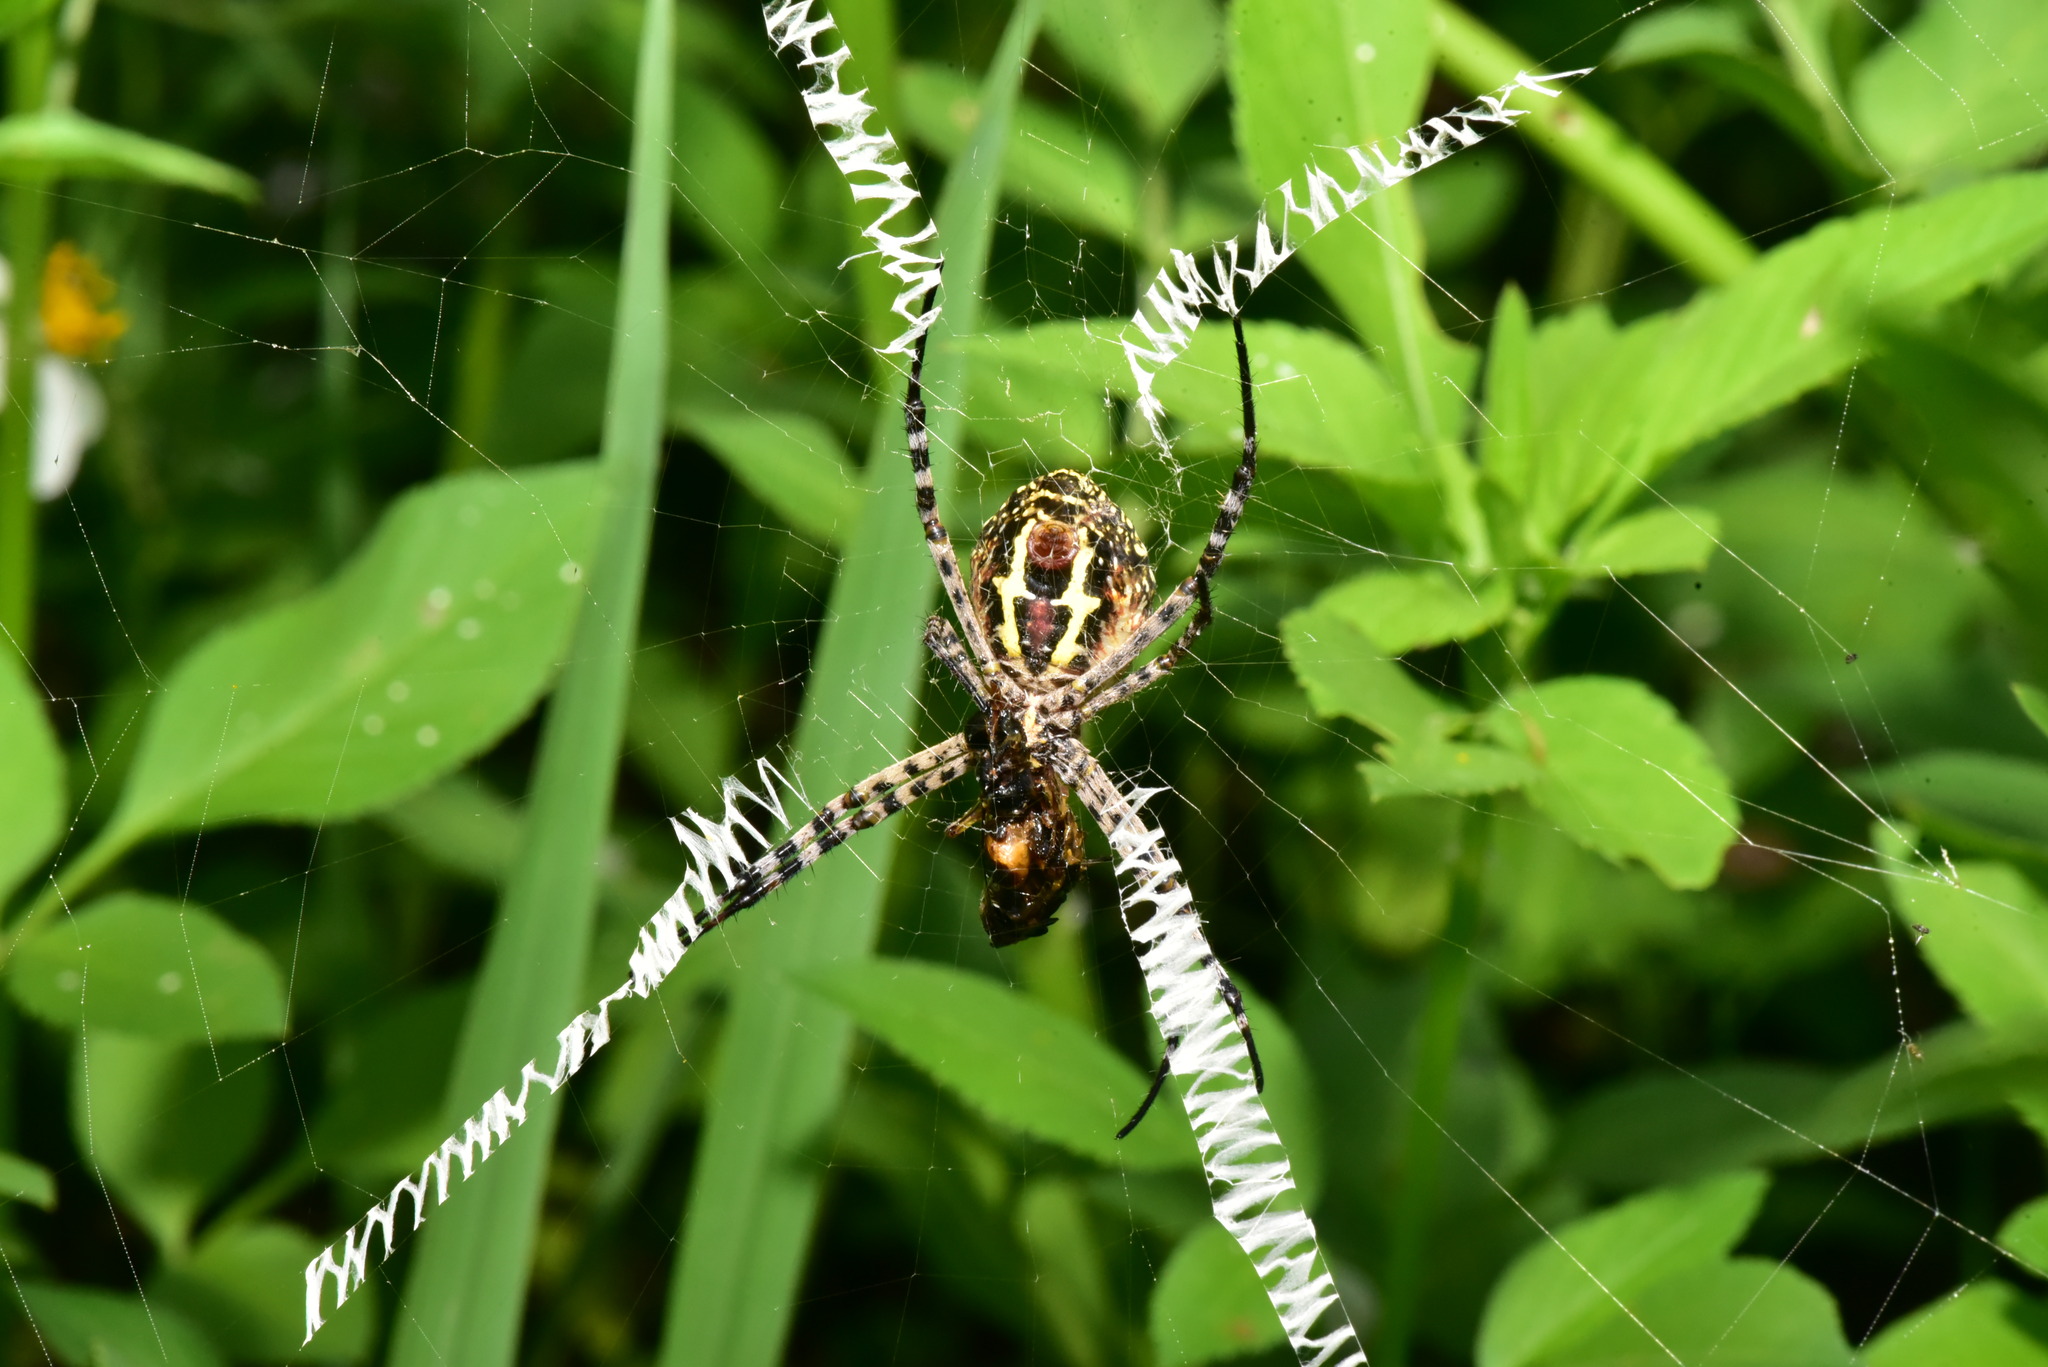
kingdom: Animalia
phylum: Arthropoda
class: Arachnida
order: Araneae
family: Araneidae
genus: Argiope
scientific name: Argiope aemula
